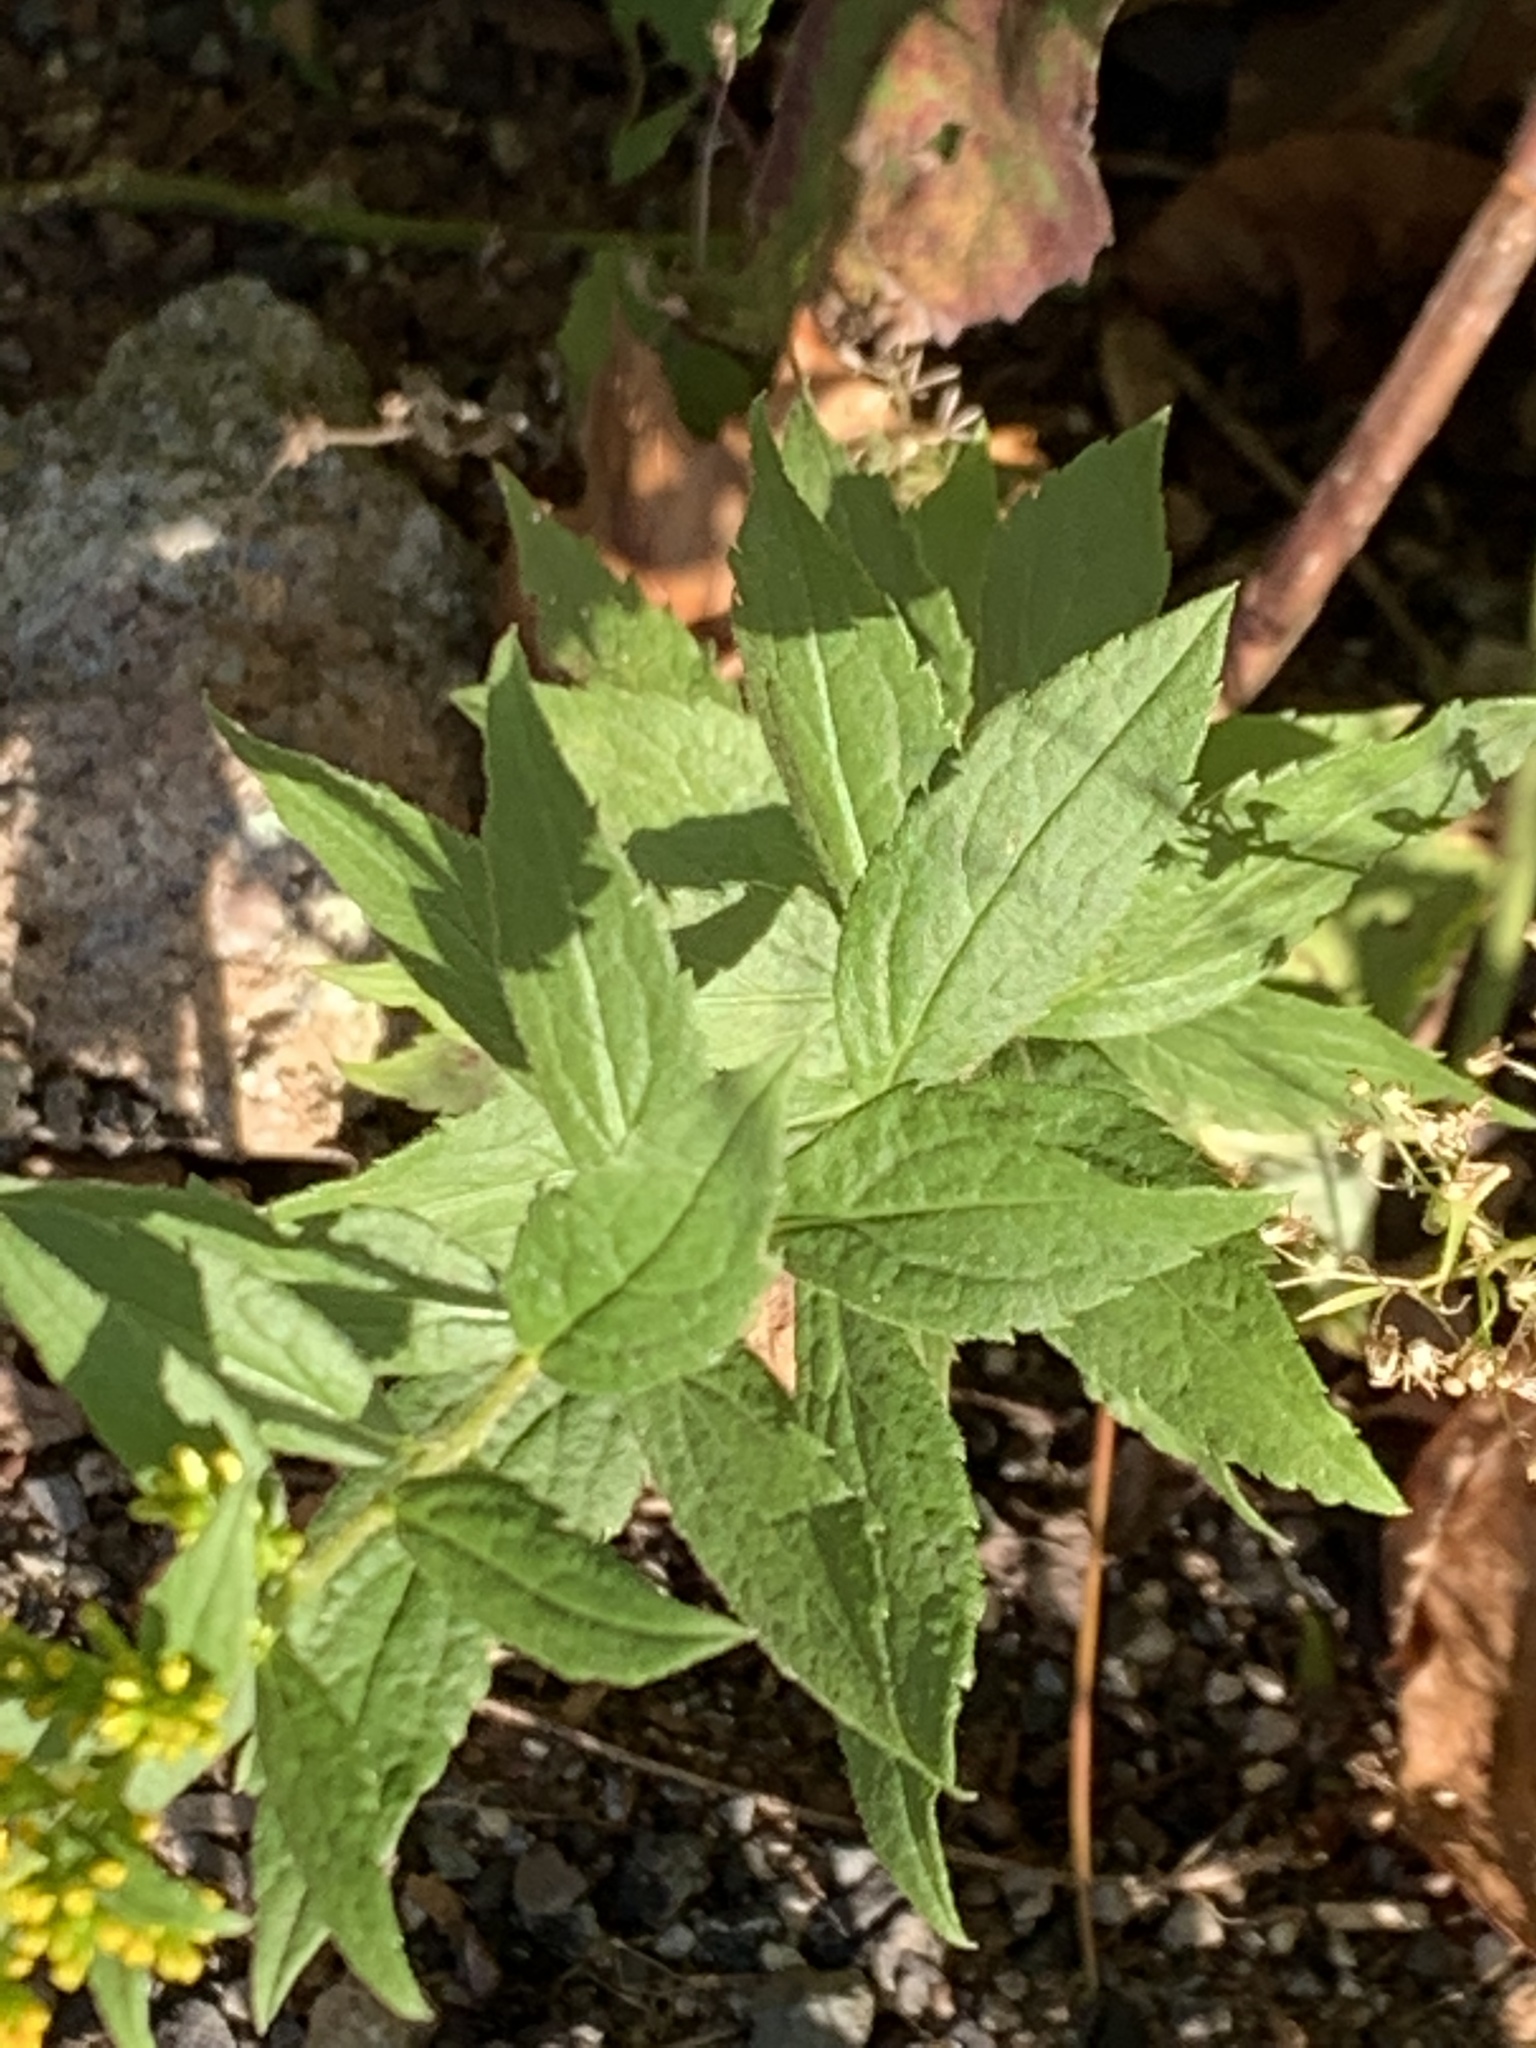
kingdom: Plantae
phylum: Tracheophyta
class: Magnoliopsida
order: Asterales
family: Asteraceae
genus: Solidago
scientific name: Solidago rugosa
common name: Rough-stemmed goldenrod
